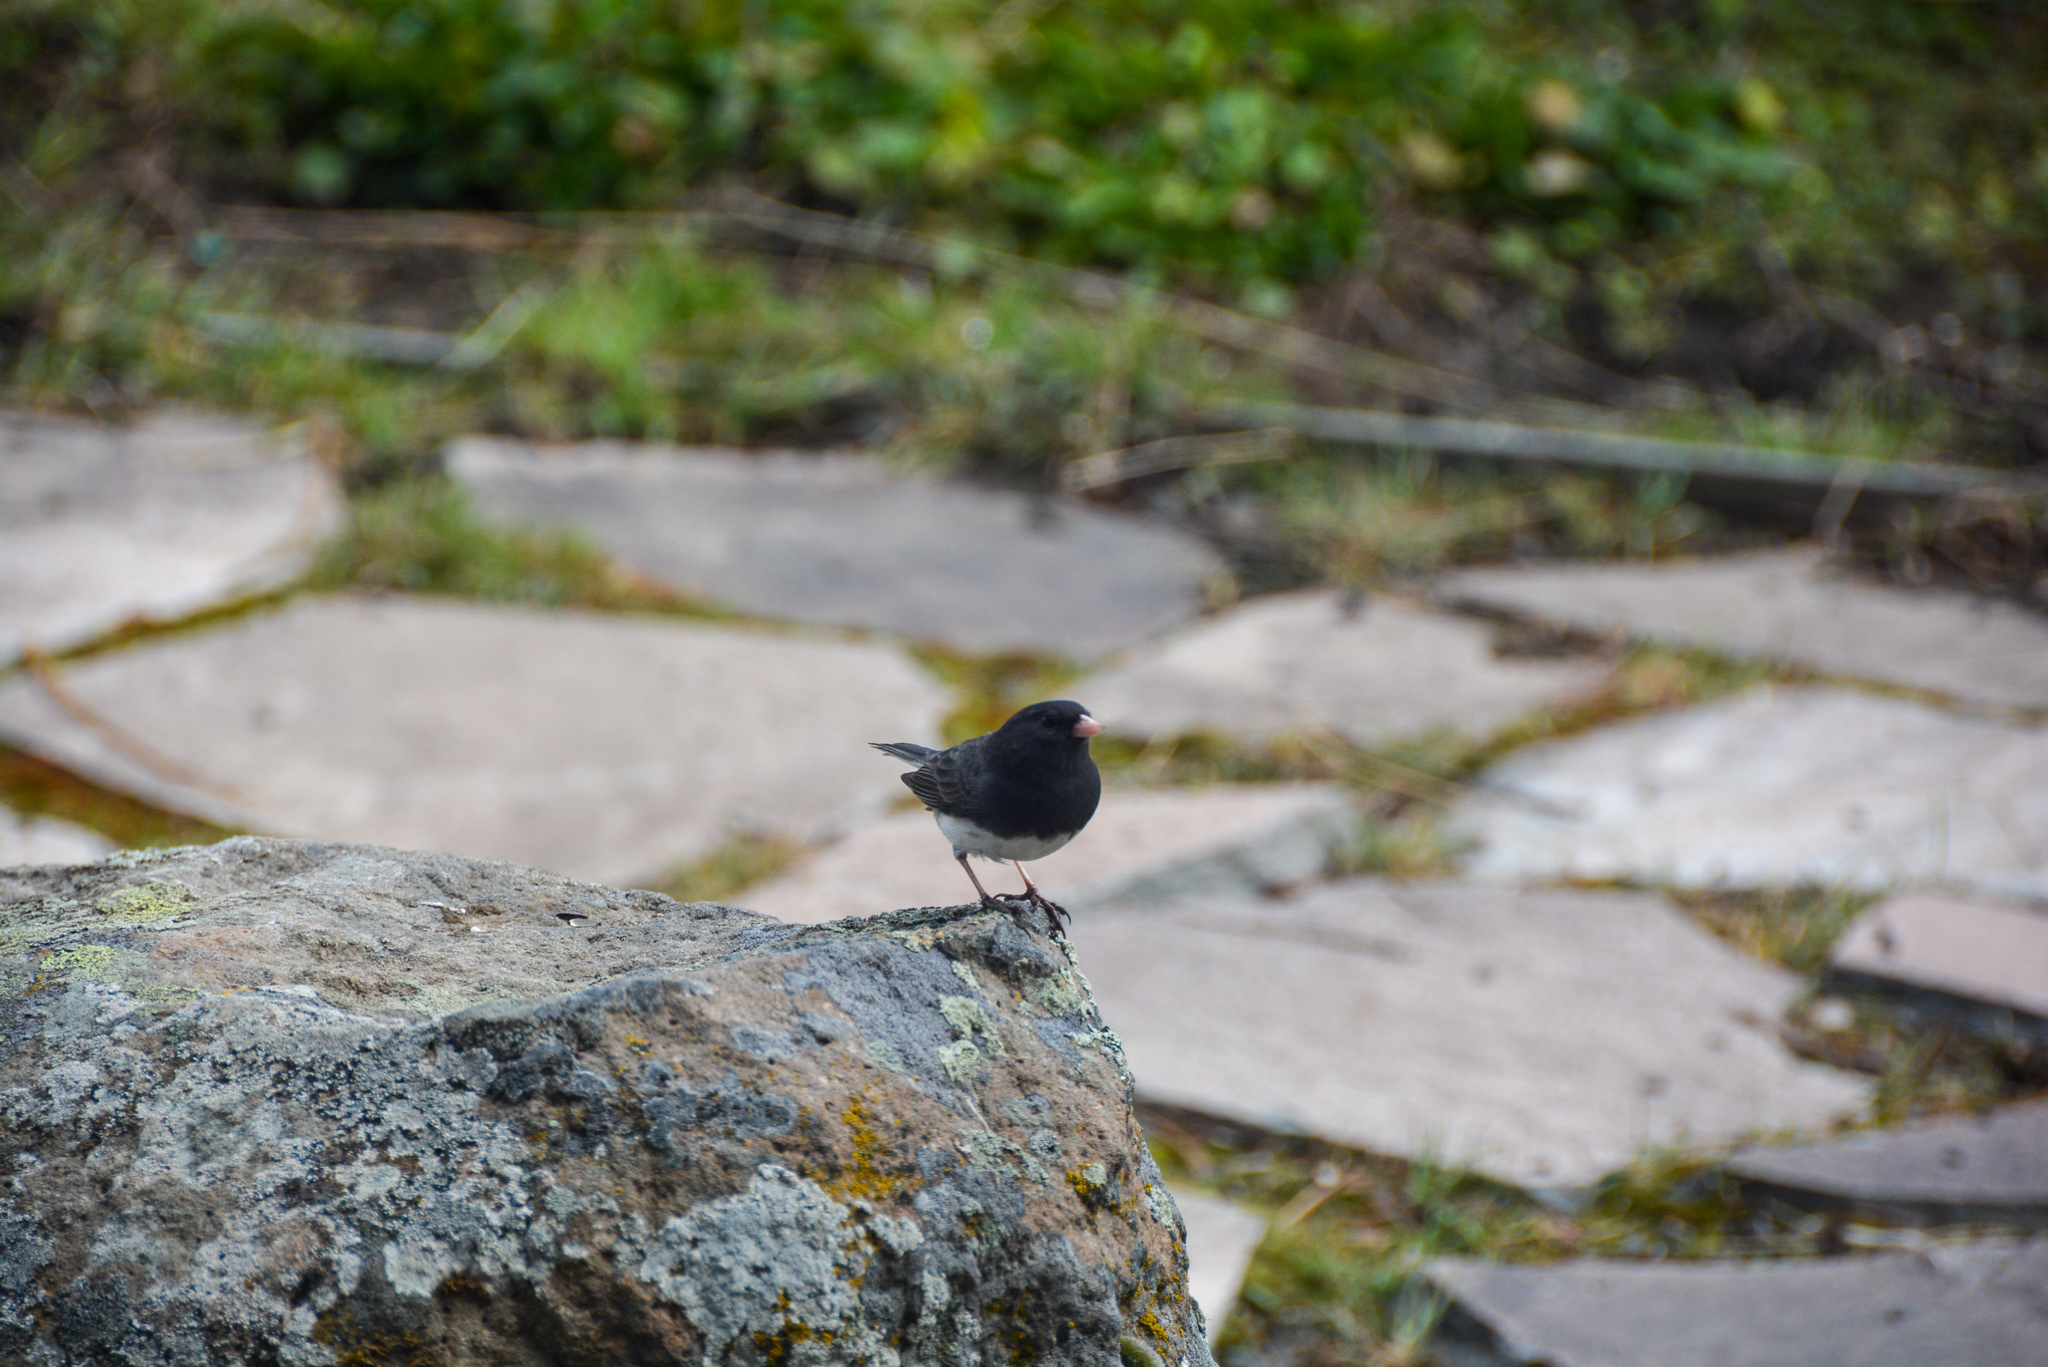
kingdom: Animalia
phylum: Chordata
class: Aves
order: Passeriformes
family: Passerellidae
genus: Junco
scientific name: Junco hyemalis
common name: Dark-eyed junco
